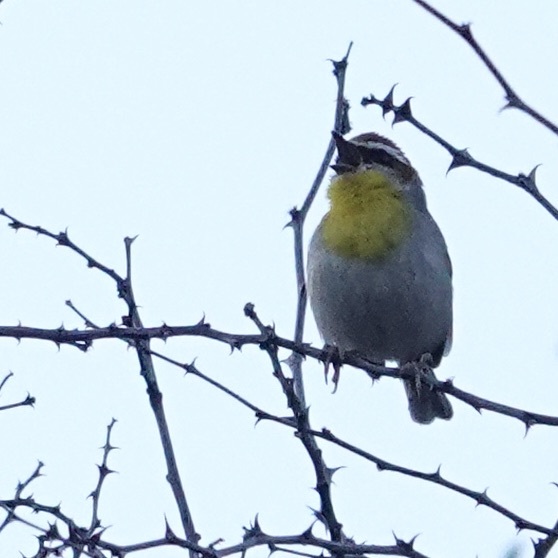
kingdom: Animalia
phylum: Chordata
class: Aves
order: Passeriformes
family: Parulidae
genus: Basileuterus
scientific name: Basileuterus rufifrons
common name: Rufous-capped warbler
